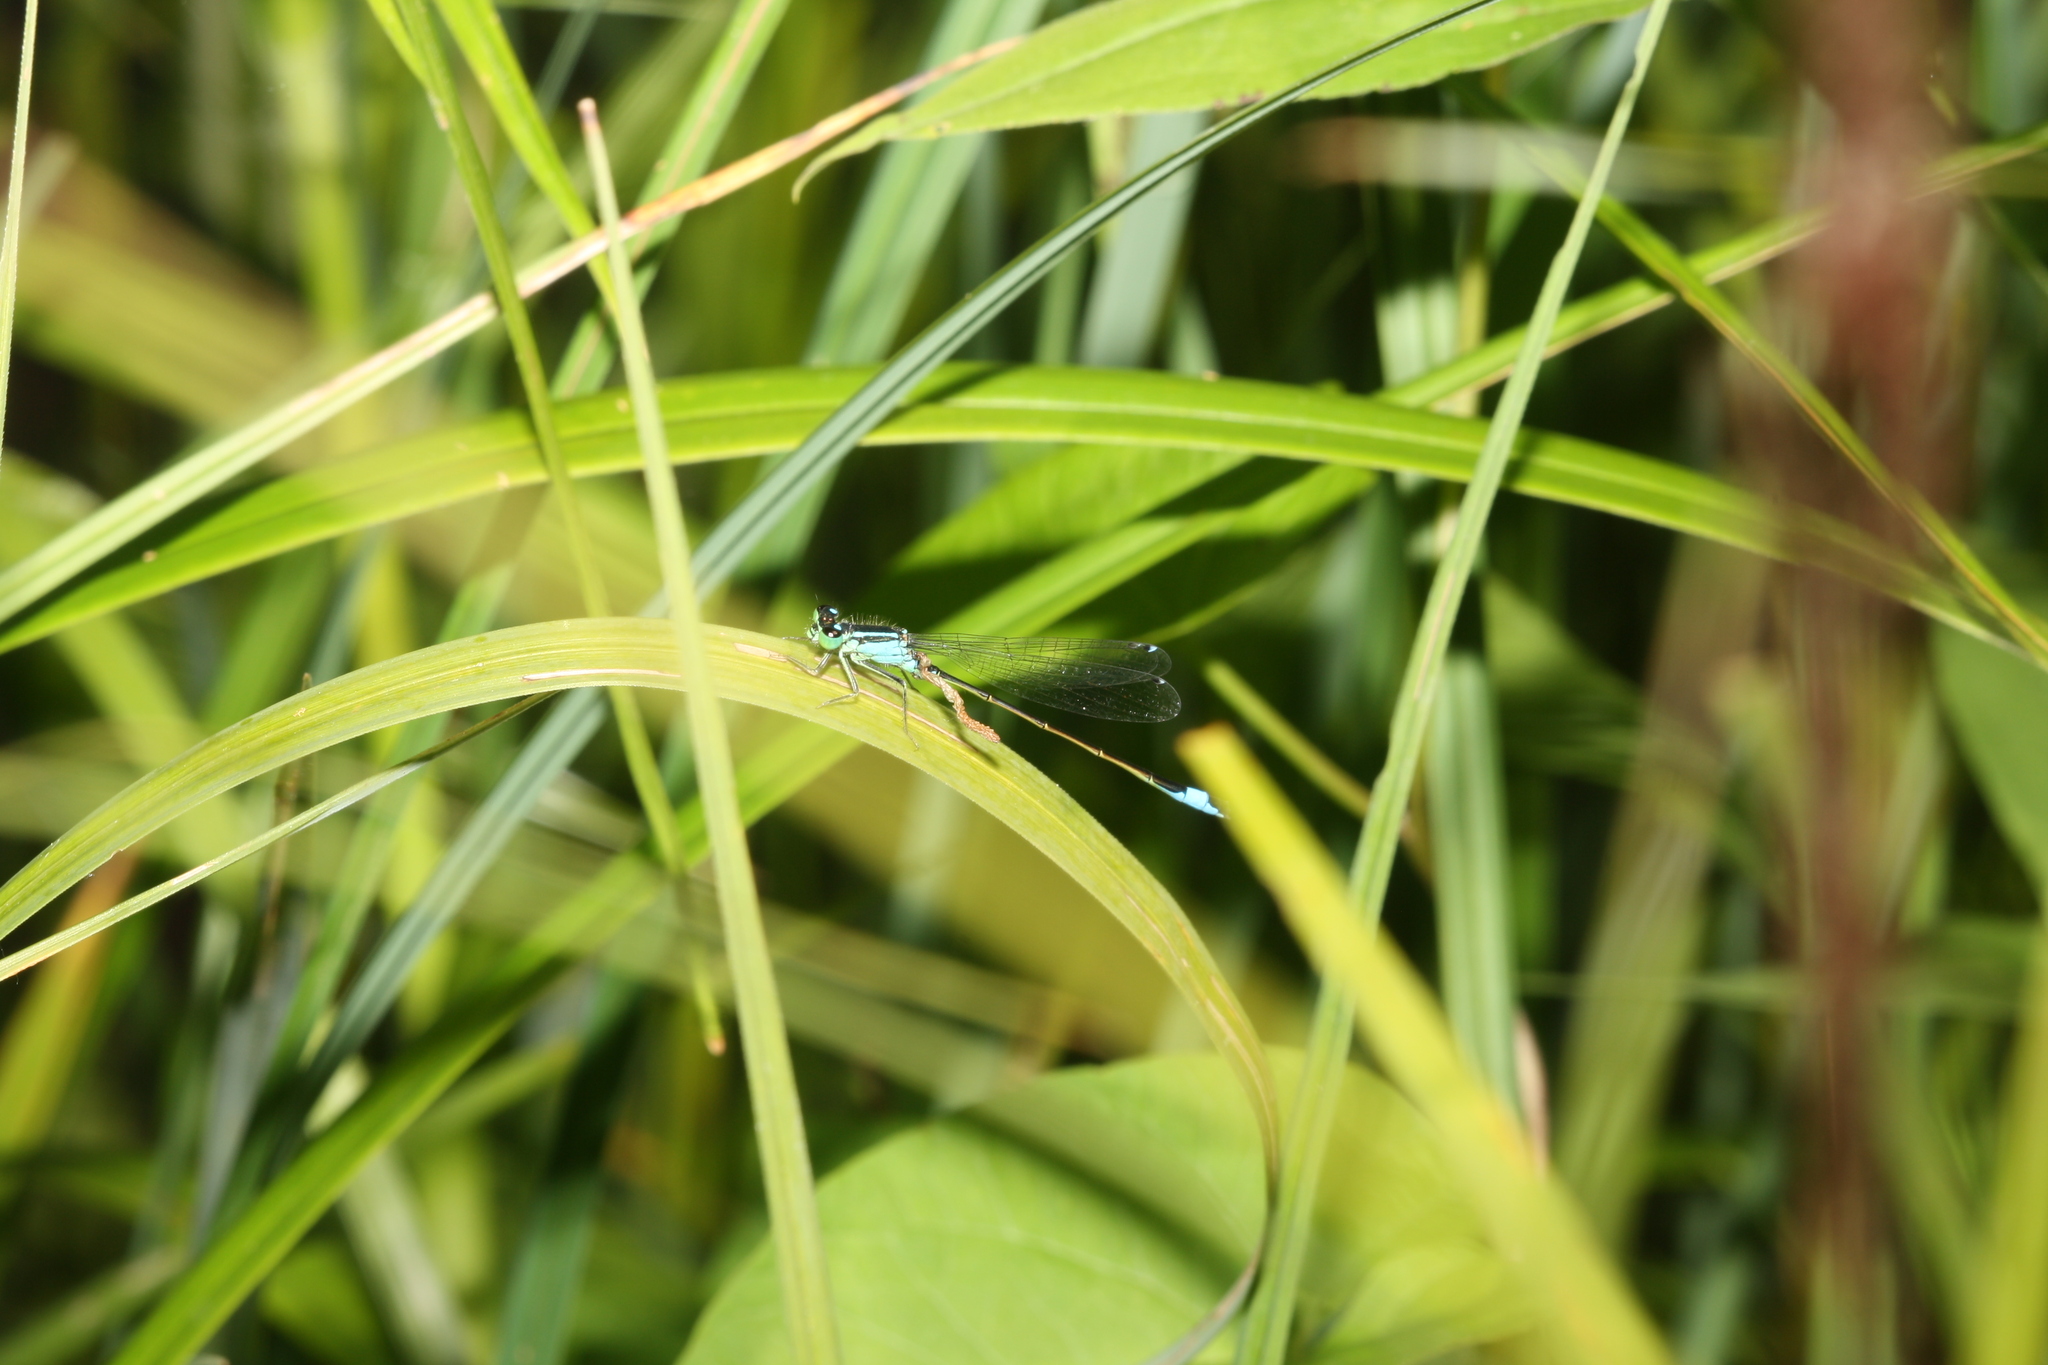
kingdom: Animalia
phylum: Arthropoda
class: Insecta
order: Odonata
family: Coenagrionidae
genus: Ischnura
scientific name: Ischnura elegans
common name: Blue-tailed damselfly
